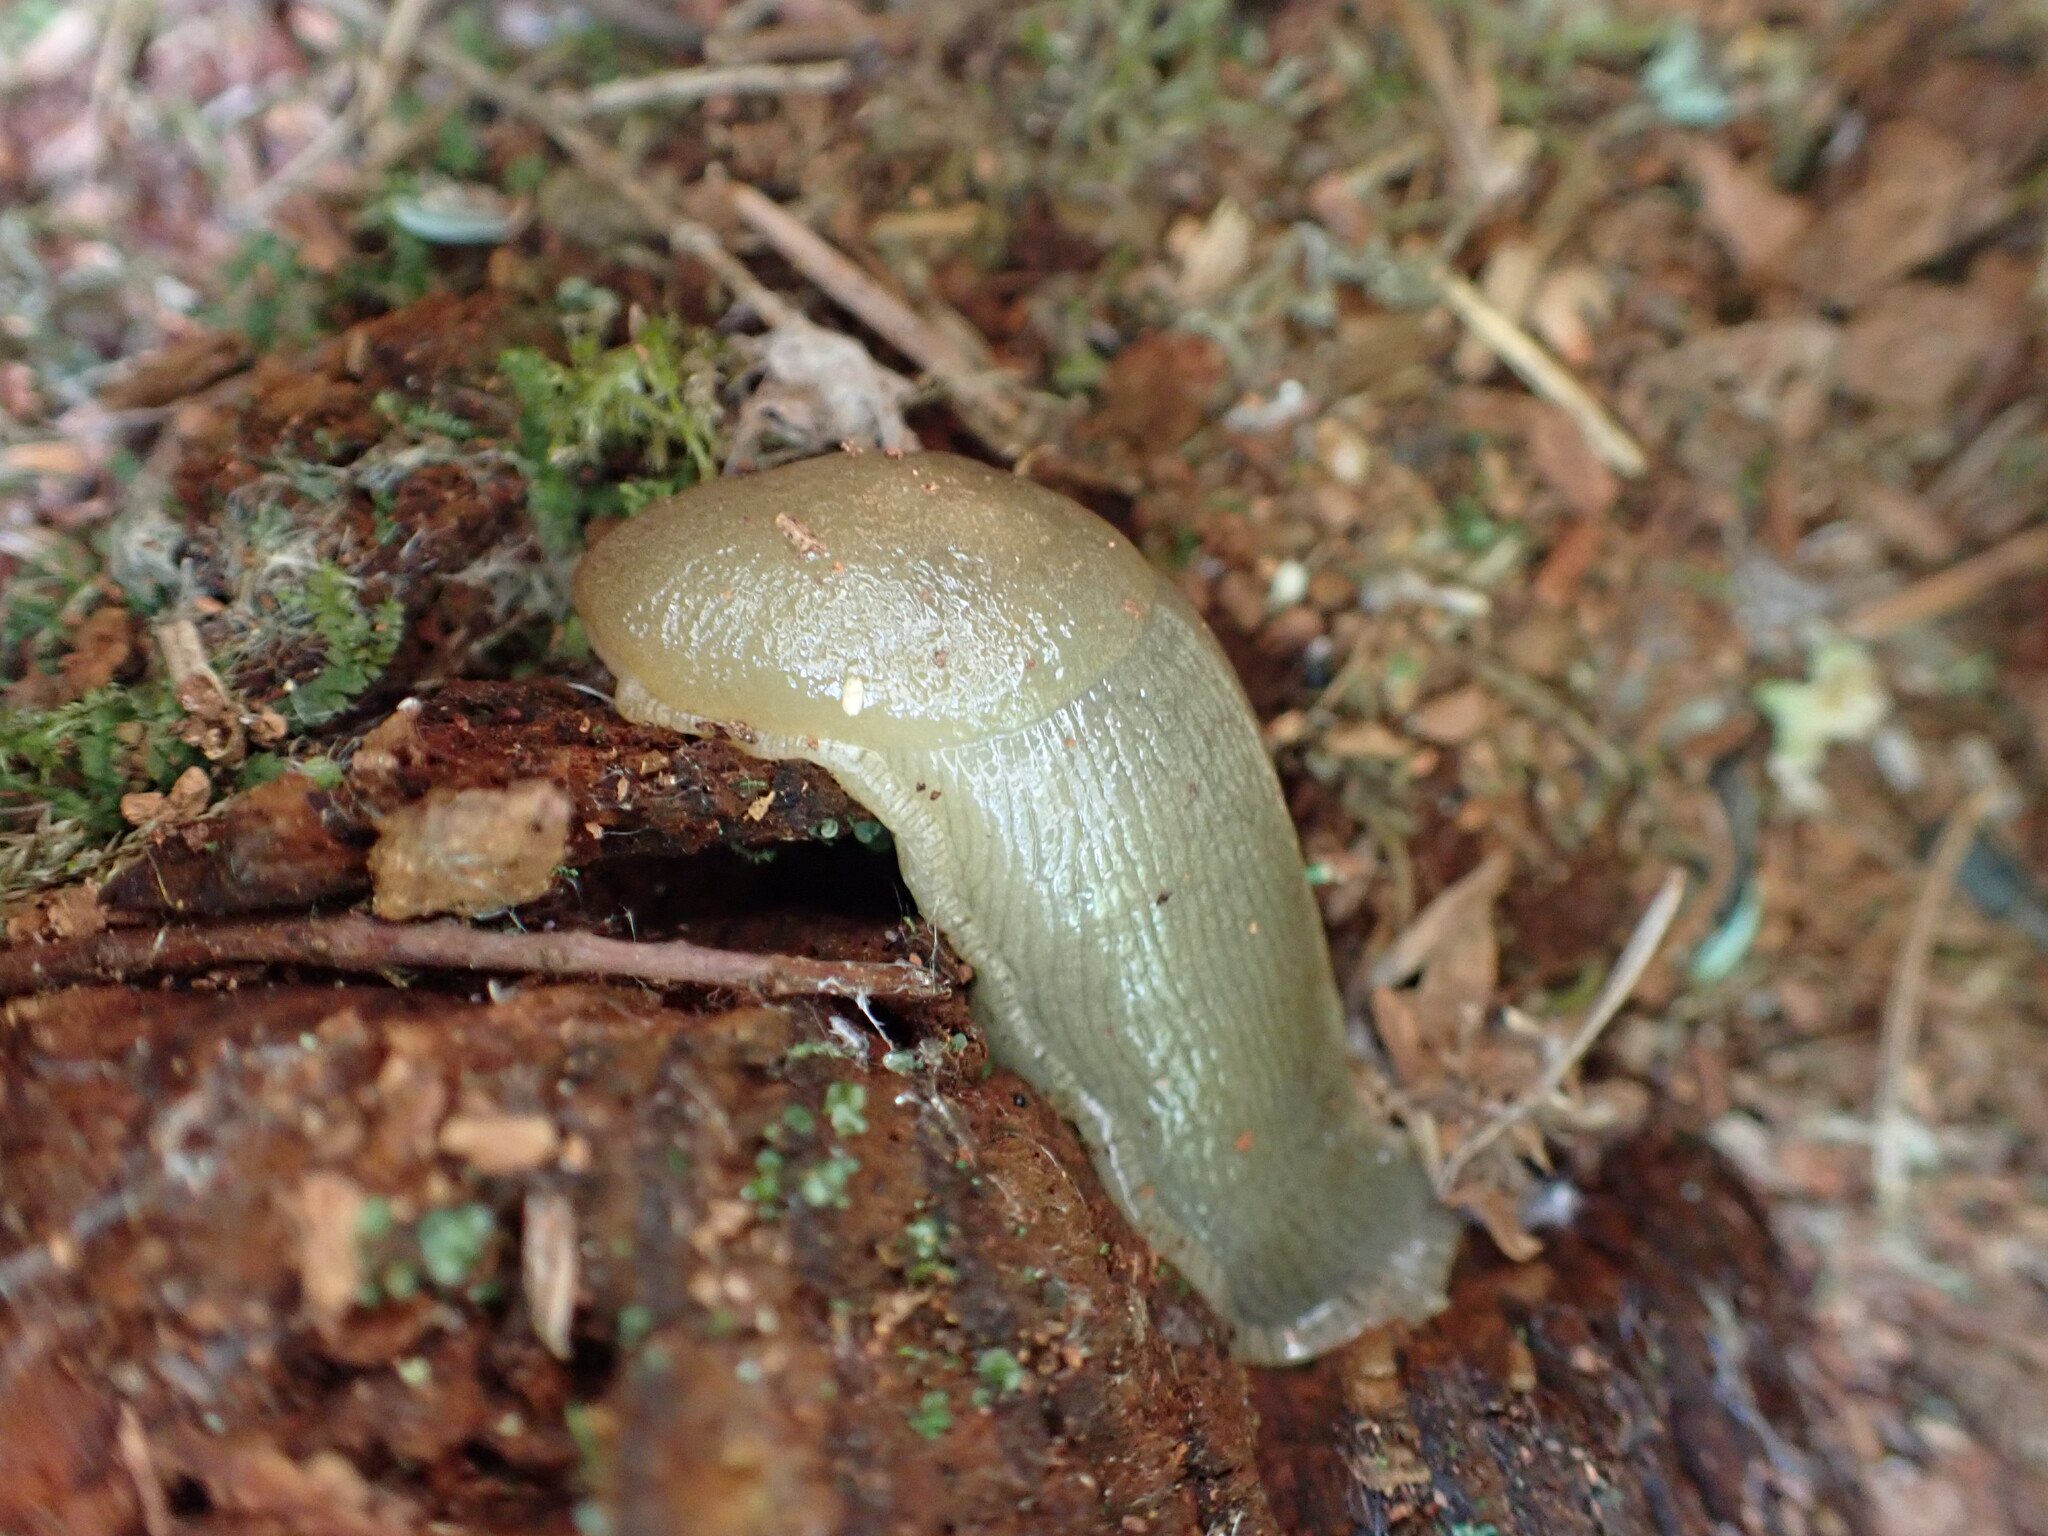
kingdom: Animalia
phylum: Mollusca
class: Gastropoda
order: Stylommatophora
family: Ariolimacidae
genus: Ariolimax
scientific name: Ariolimax columbianus
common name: Pacific banana slug
